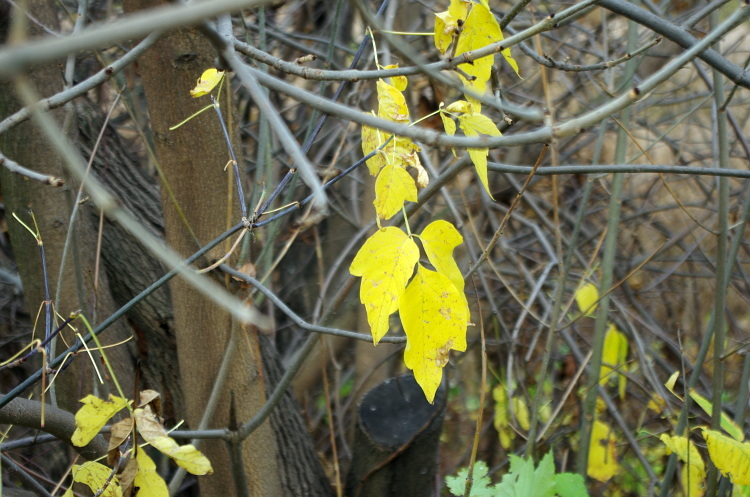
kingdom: Plantae
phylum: Tracheophyta
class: Magnoliopsida
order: Sapindales
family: Sapindaceae
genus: Acer
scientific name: Acer negundo
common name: Ashleaf maple
